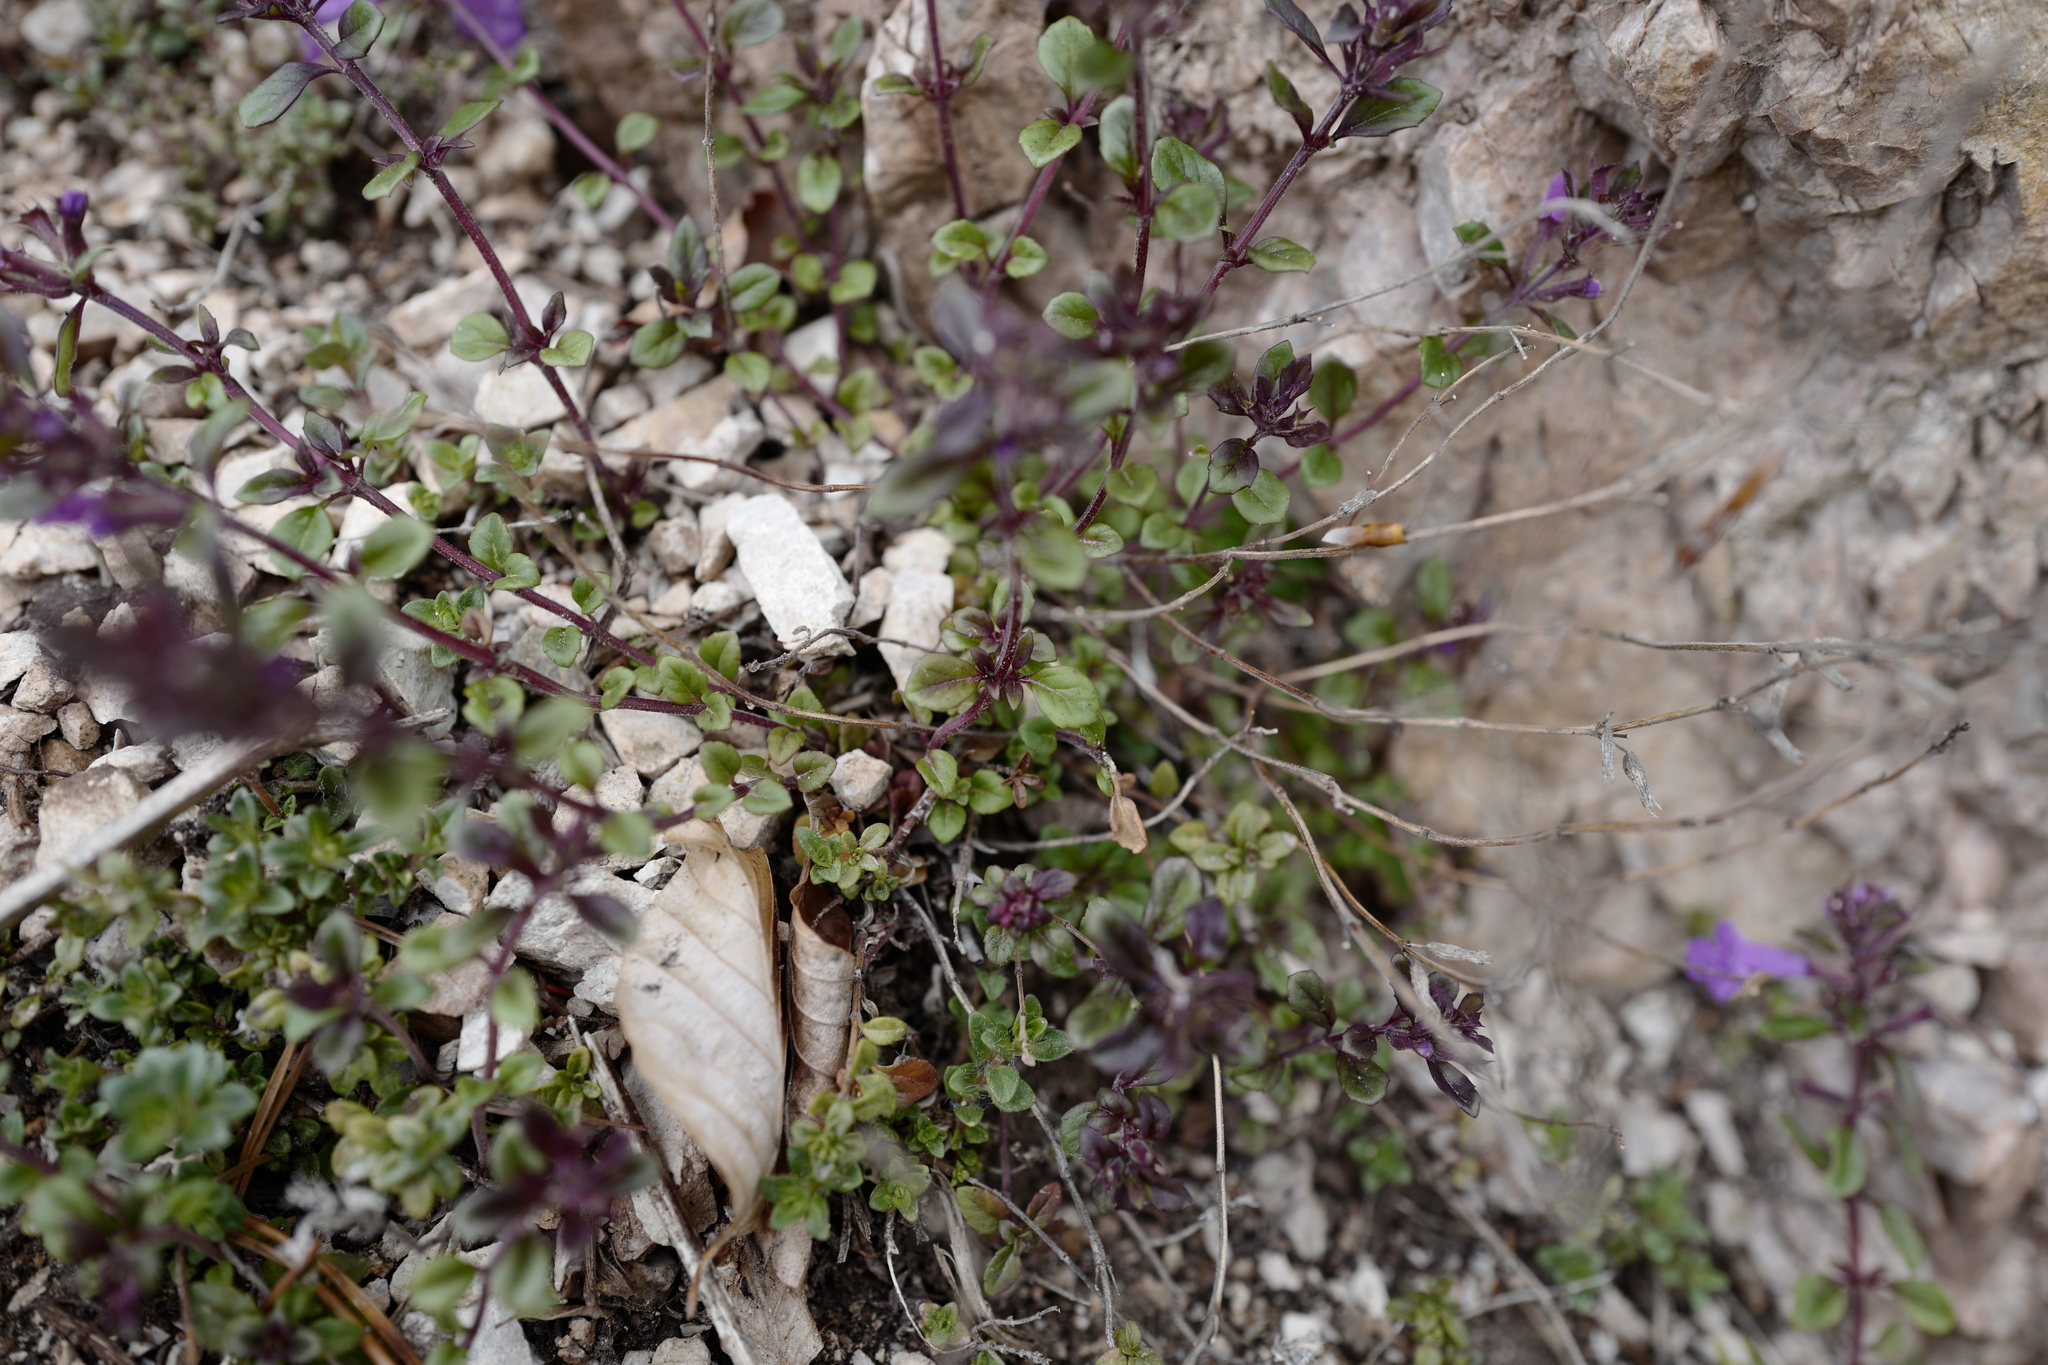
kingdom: Plantae
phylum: Tracheophyta
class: Magnoliopsida
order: Lamiales
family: Lamiaceae
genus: Clinopodium
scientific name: Clinopodium alpinum
